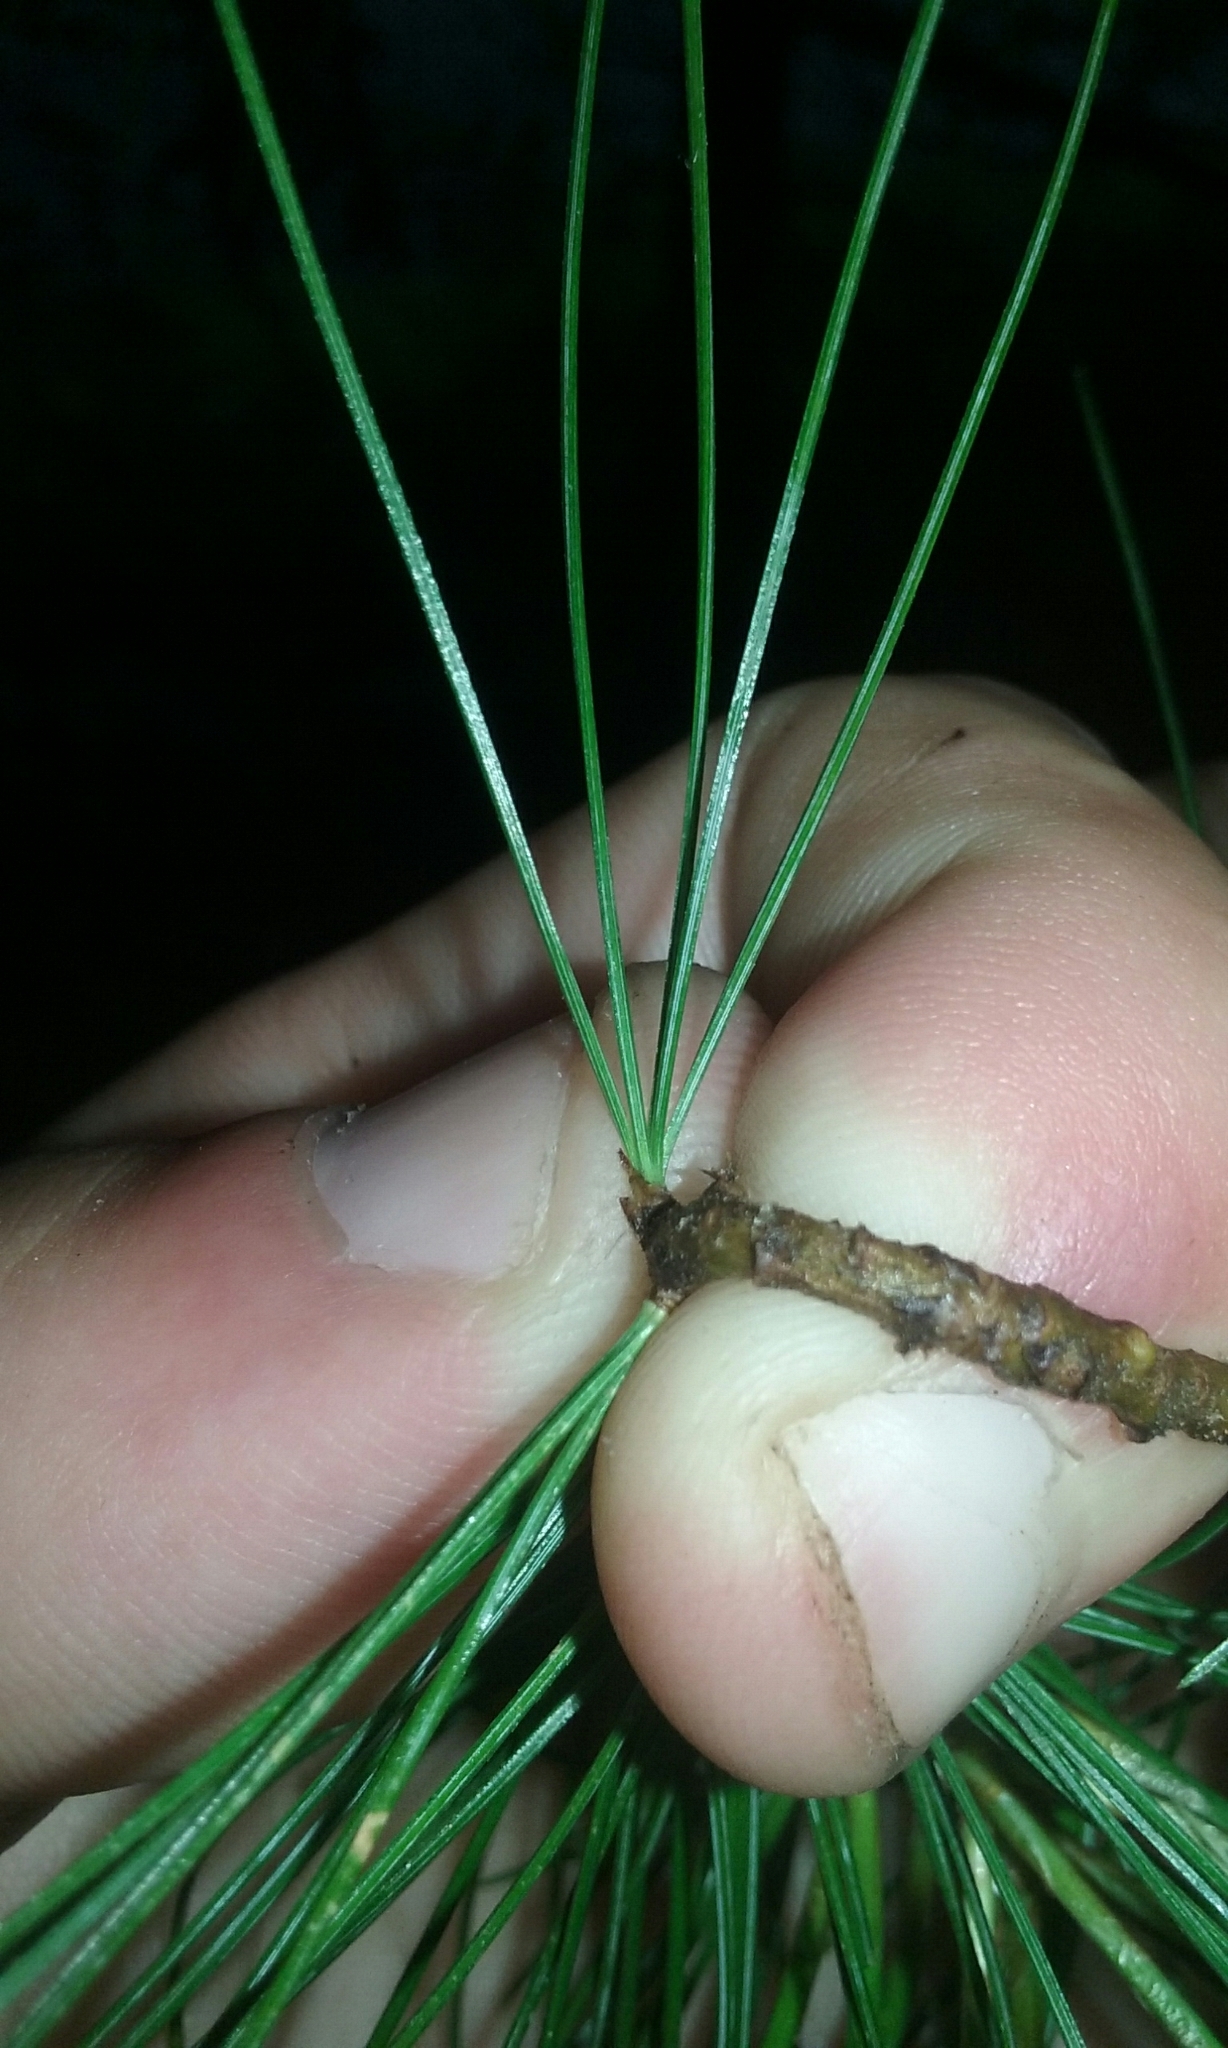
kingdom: Plantae
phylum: Tracheophyta
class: Pinopsida
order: Pinales
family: Pinaceae
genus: Pinus
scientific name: Pinus strobus
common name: Weymouth pine
